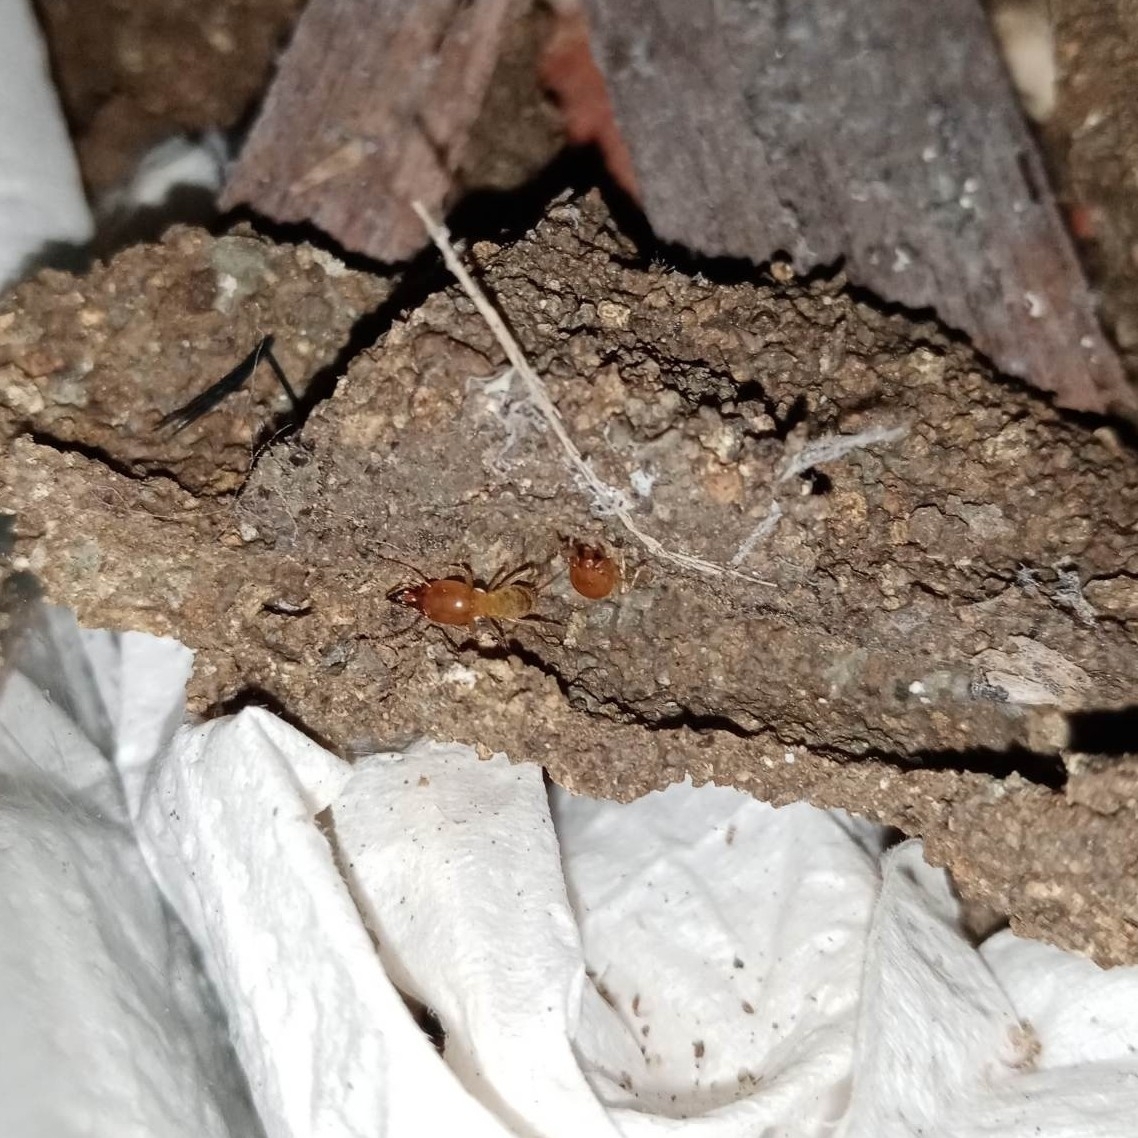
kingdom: Animalia
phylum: Arthropoda
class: Insecta
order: Blattodea
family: Termitidae
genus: Macrotermes
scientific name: Macrotermes gilvus
